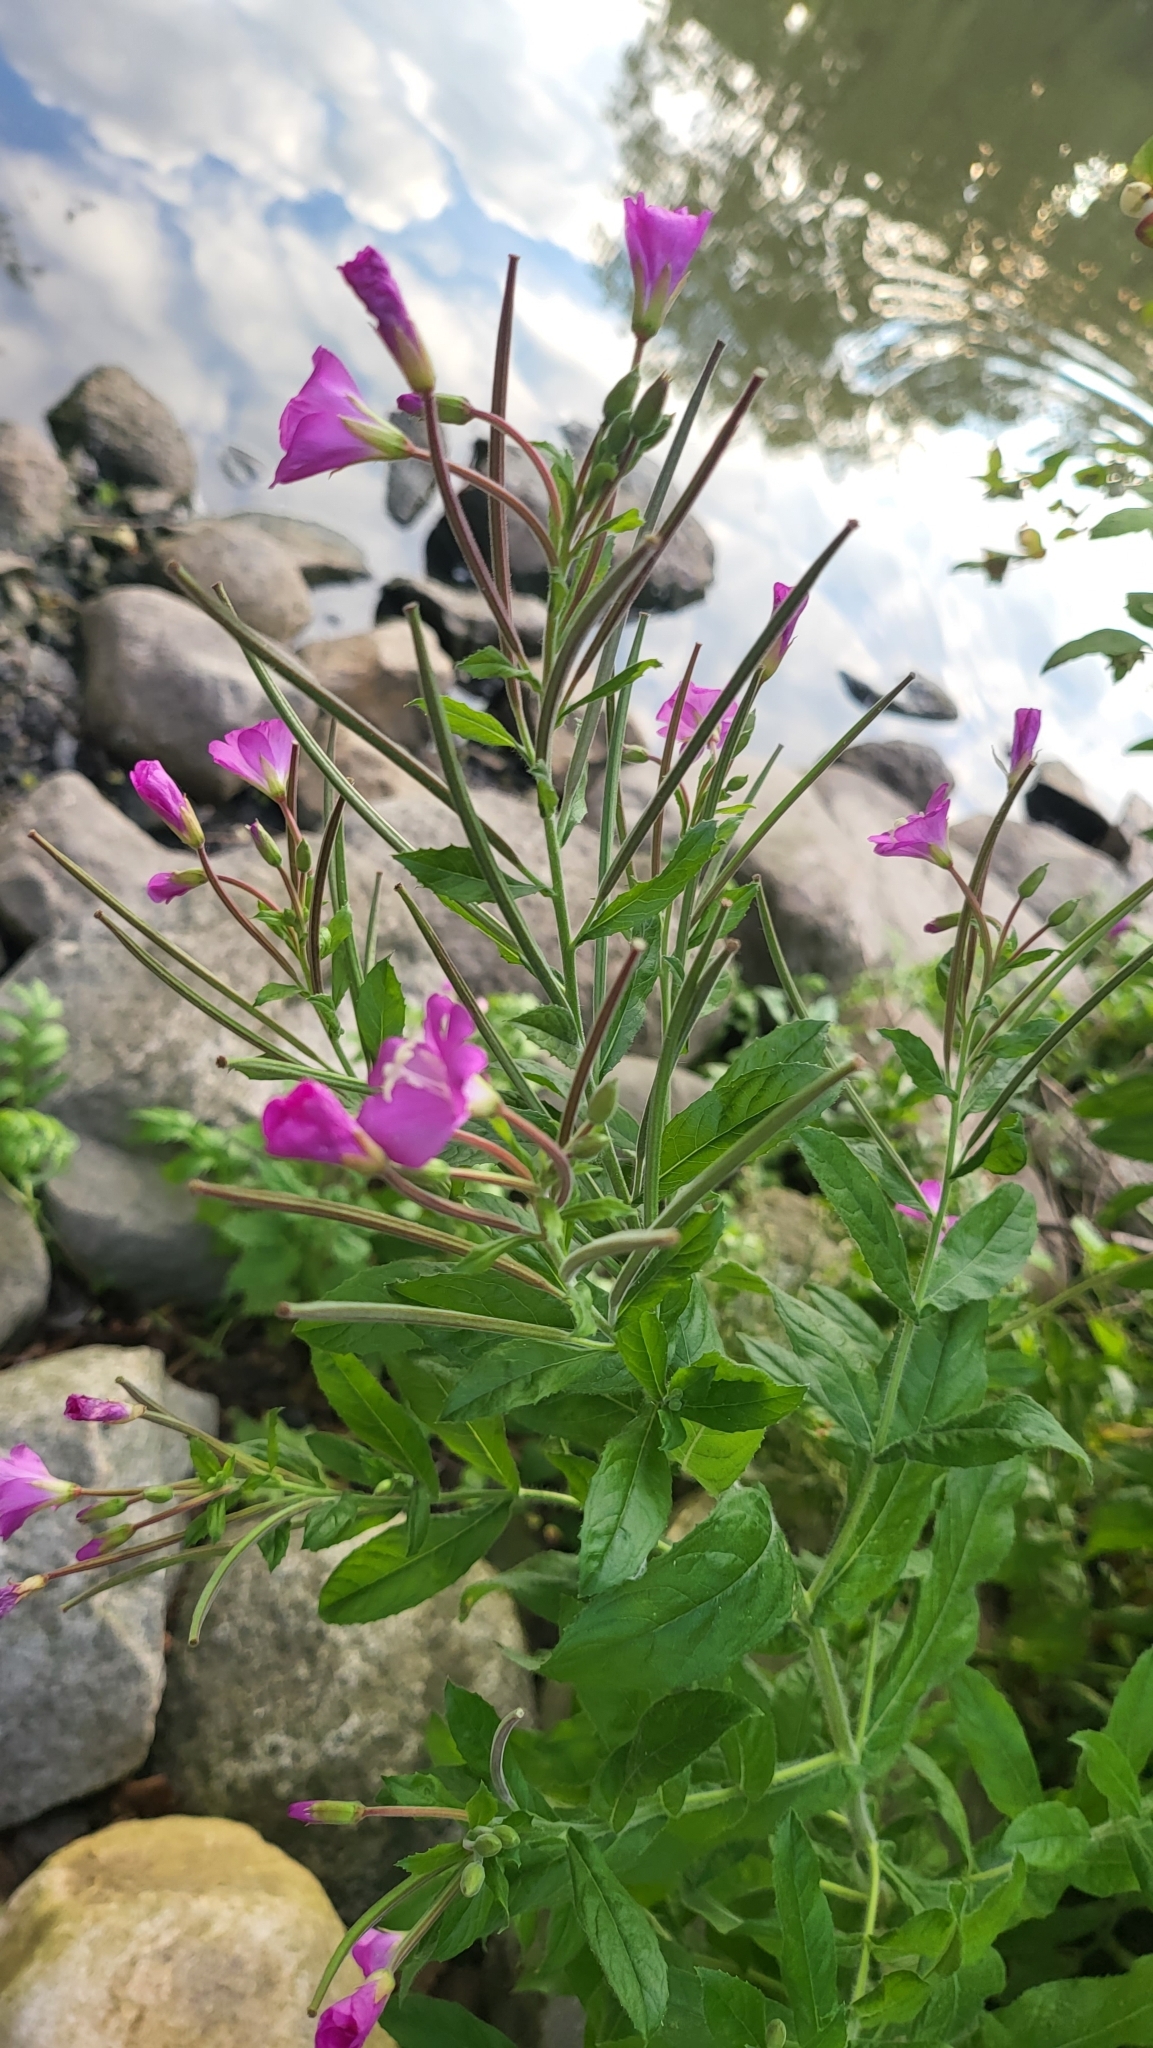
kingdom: Plantae
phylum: Tracheophyta
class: Magnoliopsida
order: Myrtales
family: Onagraceae
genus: Epilobium
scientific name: Epilobium hirsutum
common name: Great willowherb
